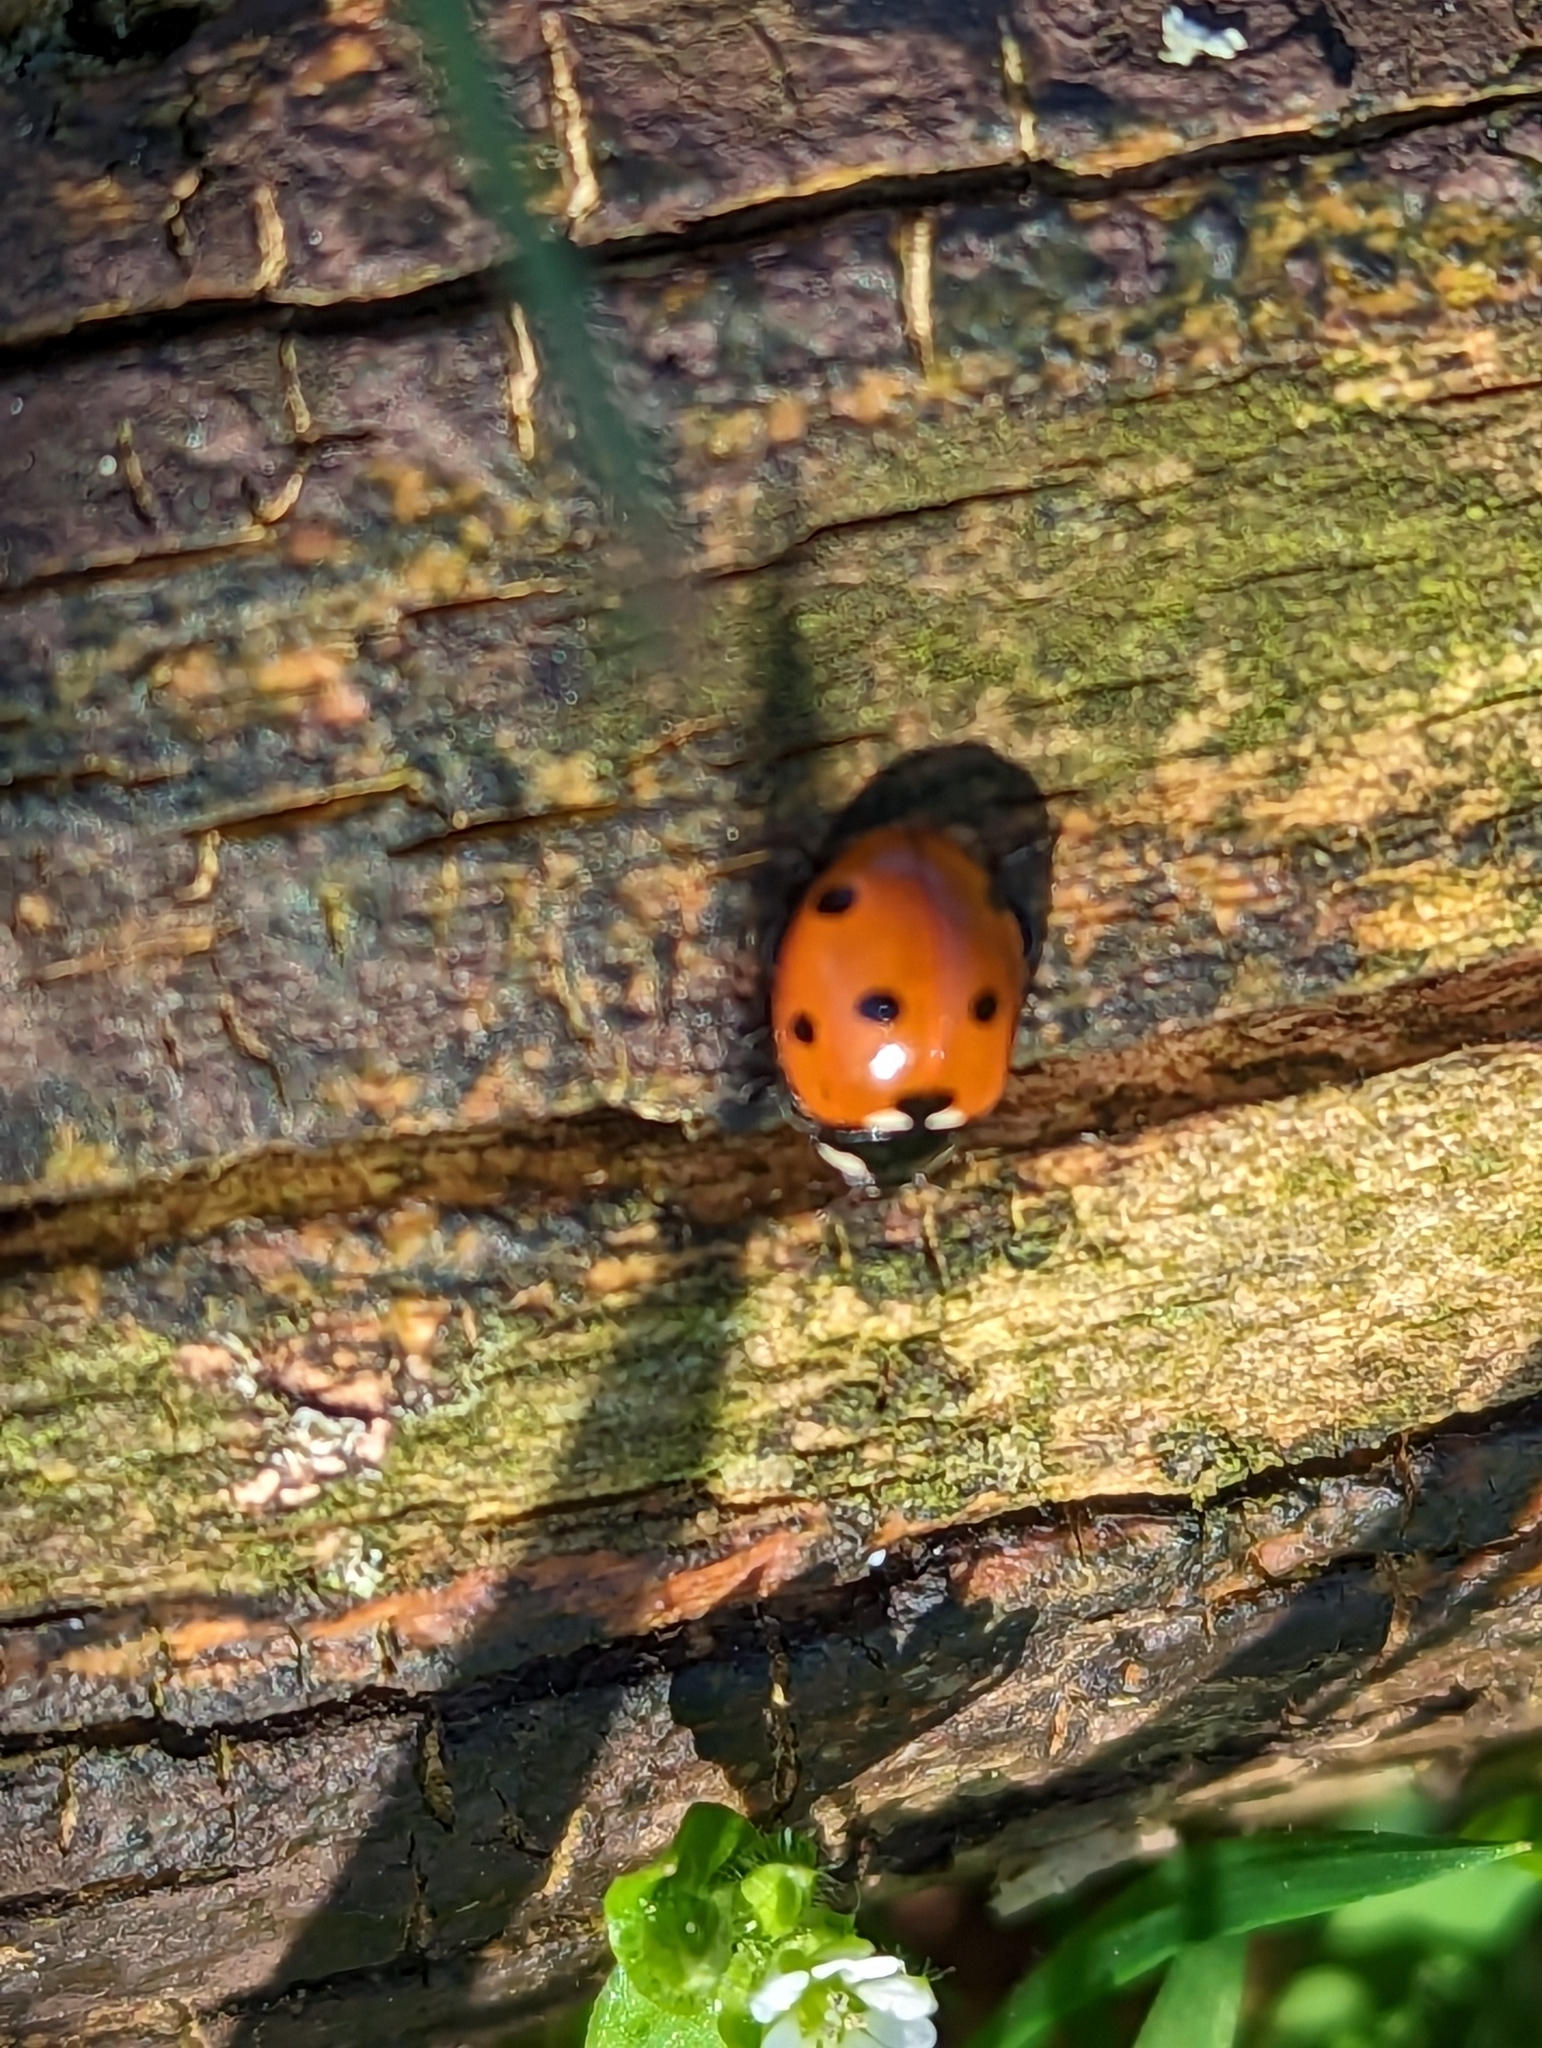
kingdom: Animalia
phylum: Arthropoda
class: Insecta
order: Coleoptera
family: Coccinellidae
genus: Coccinella
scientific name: Coccinella septempunctata
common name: Sevenspotted lady beetle
